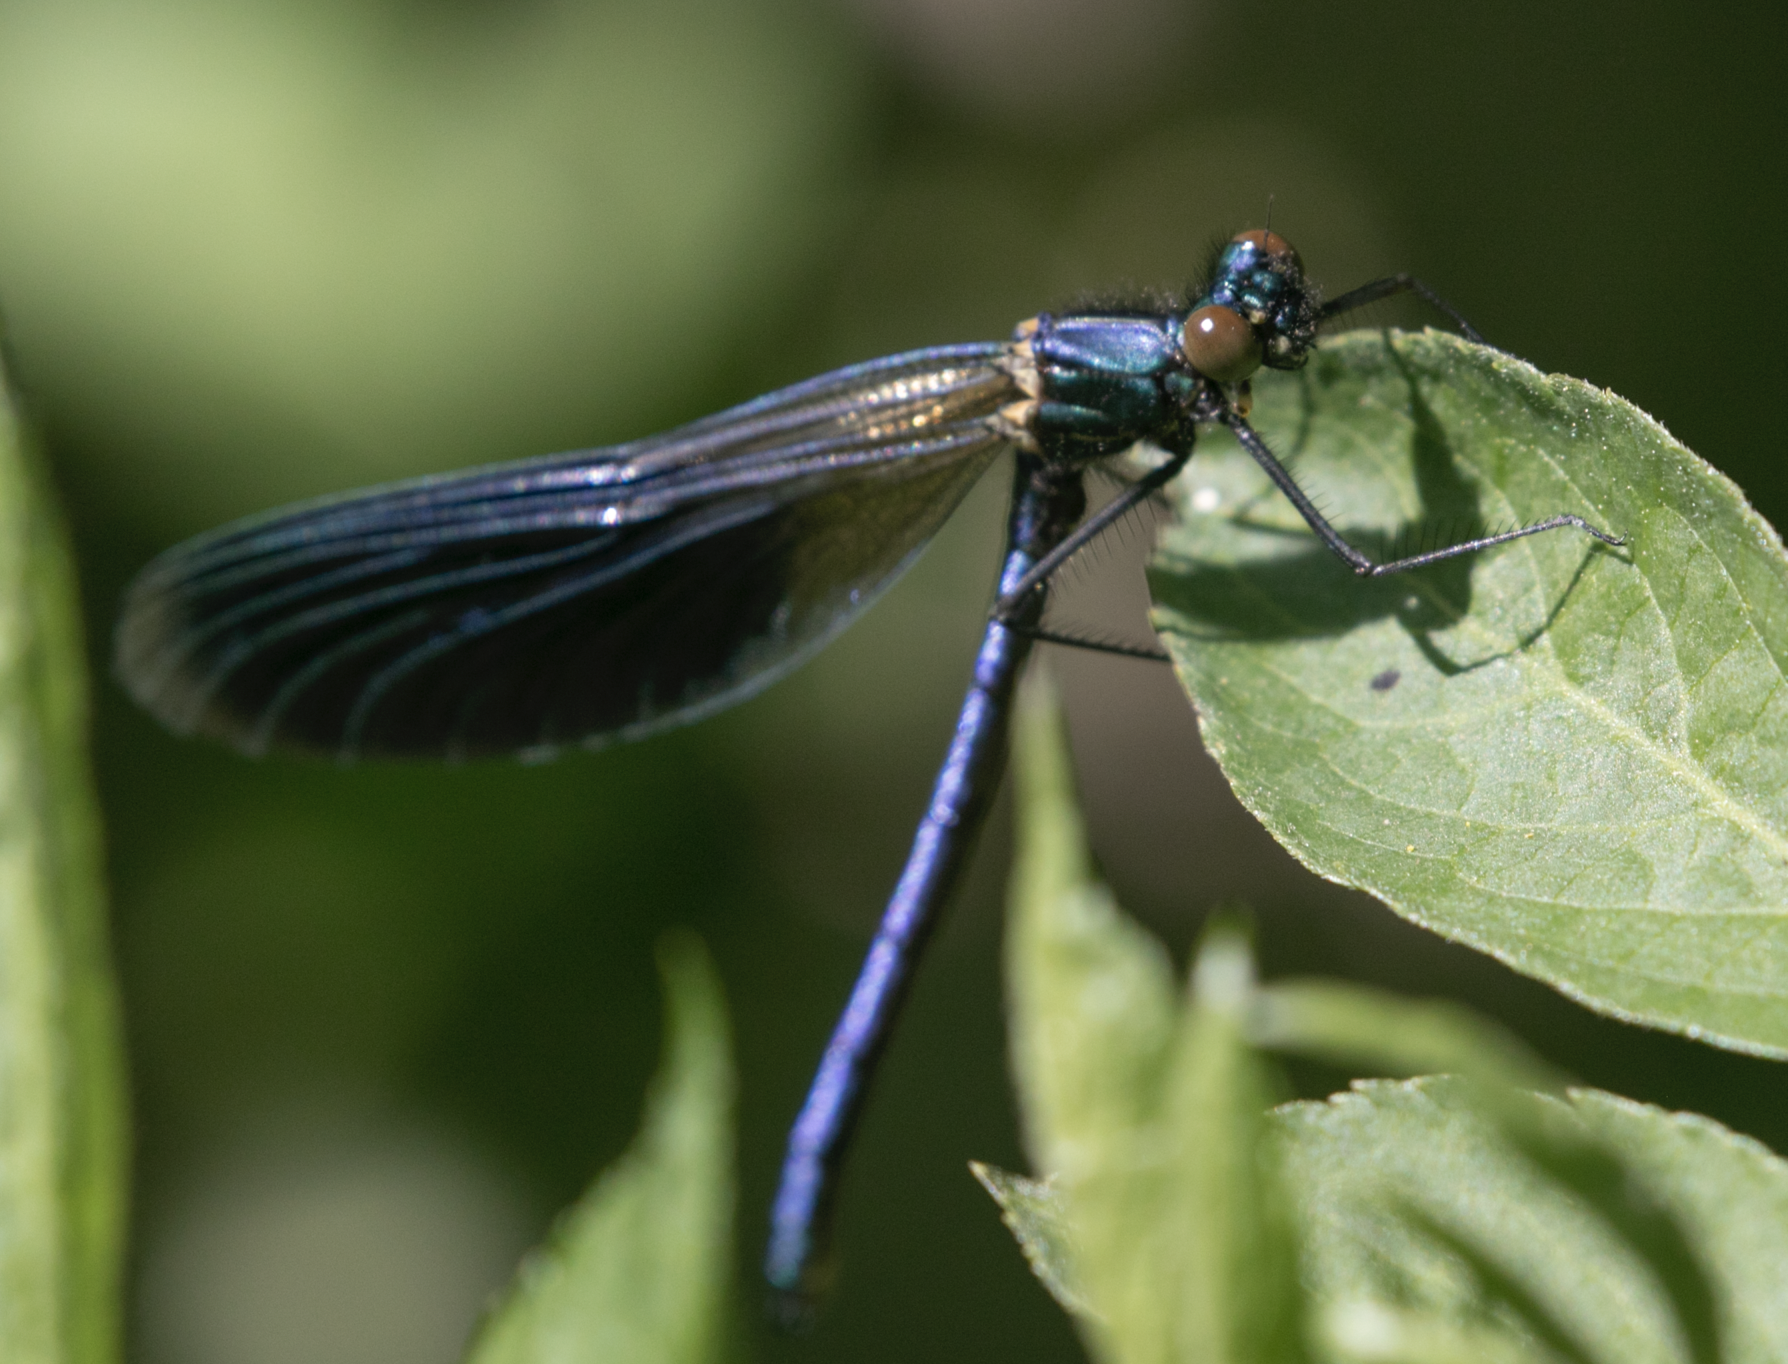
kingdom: Animalia
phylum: Arthropoda
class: Insecta
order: Odonata
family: Calopterygidae
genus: Calopteryx
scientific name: Calopteryx splendens
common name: Banded demoiselle
